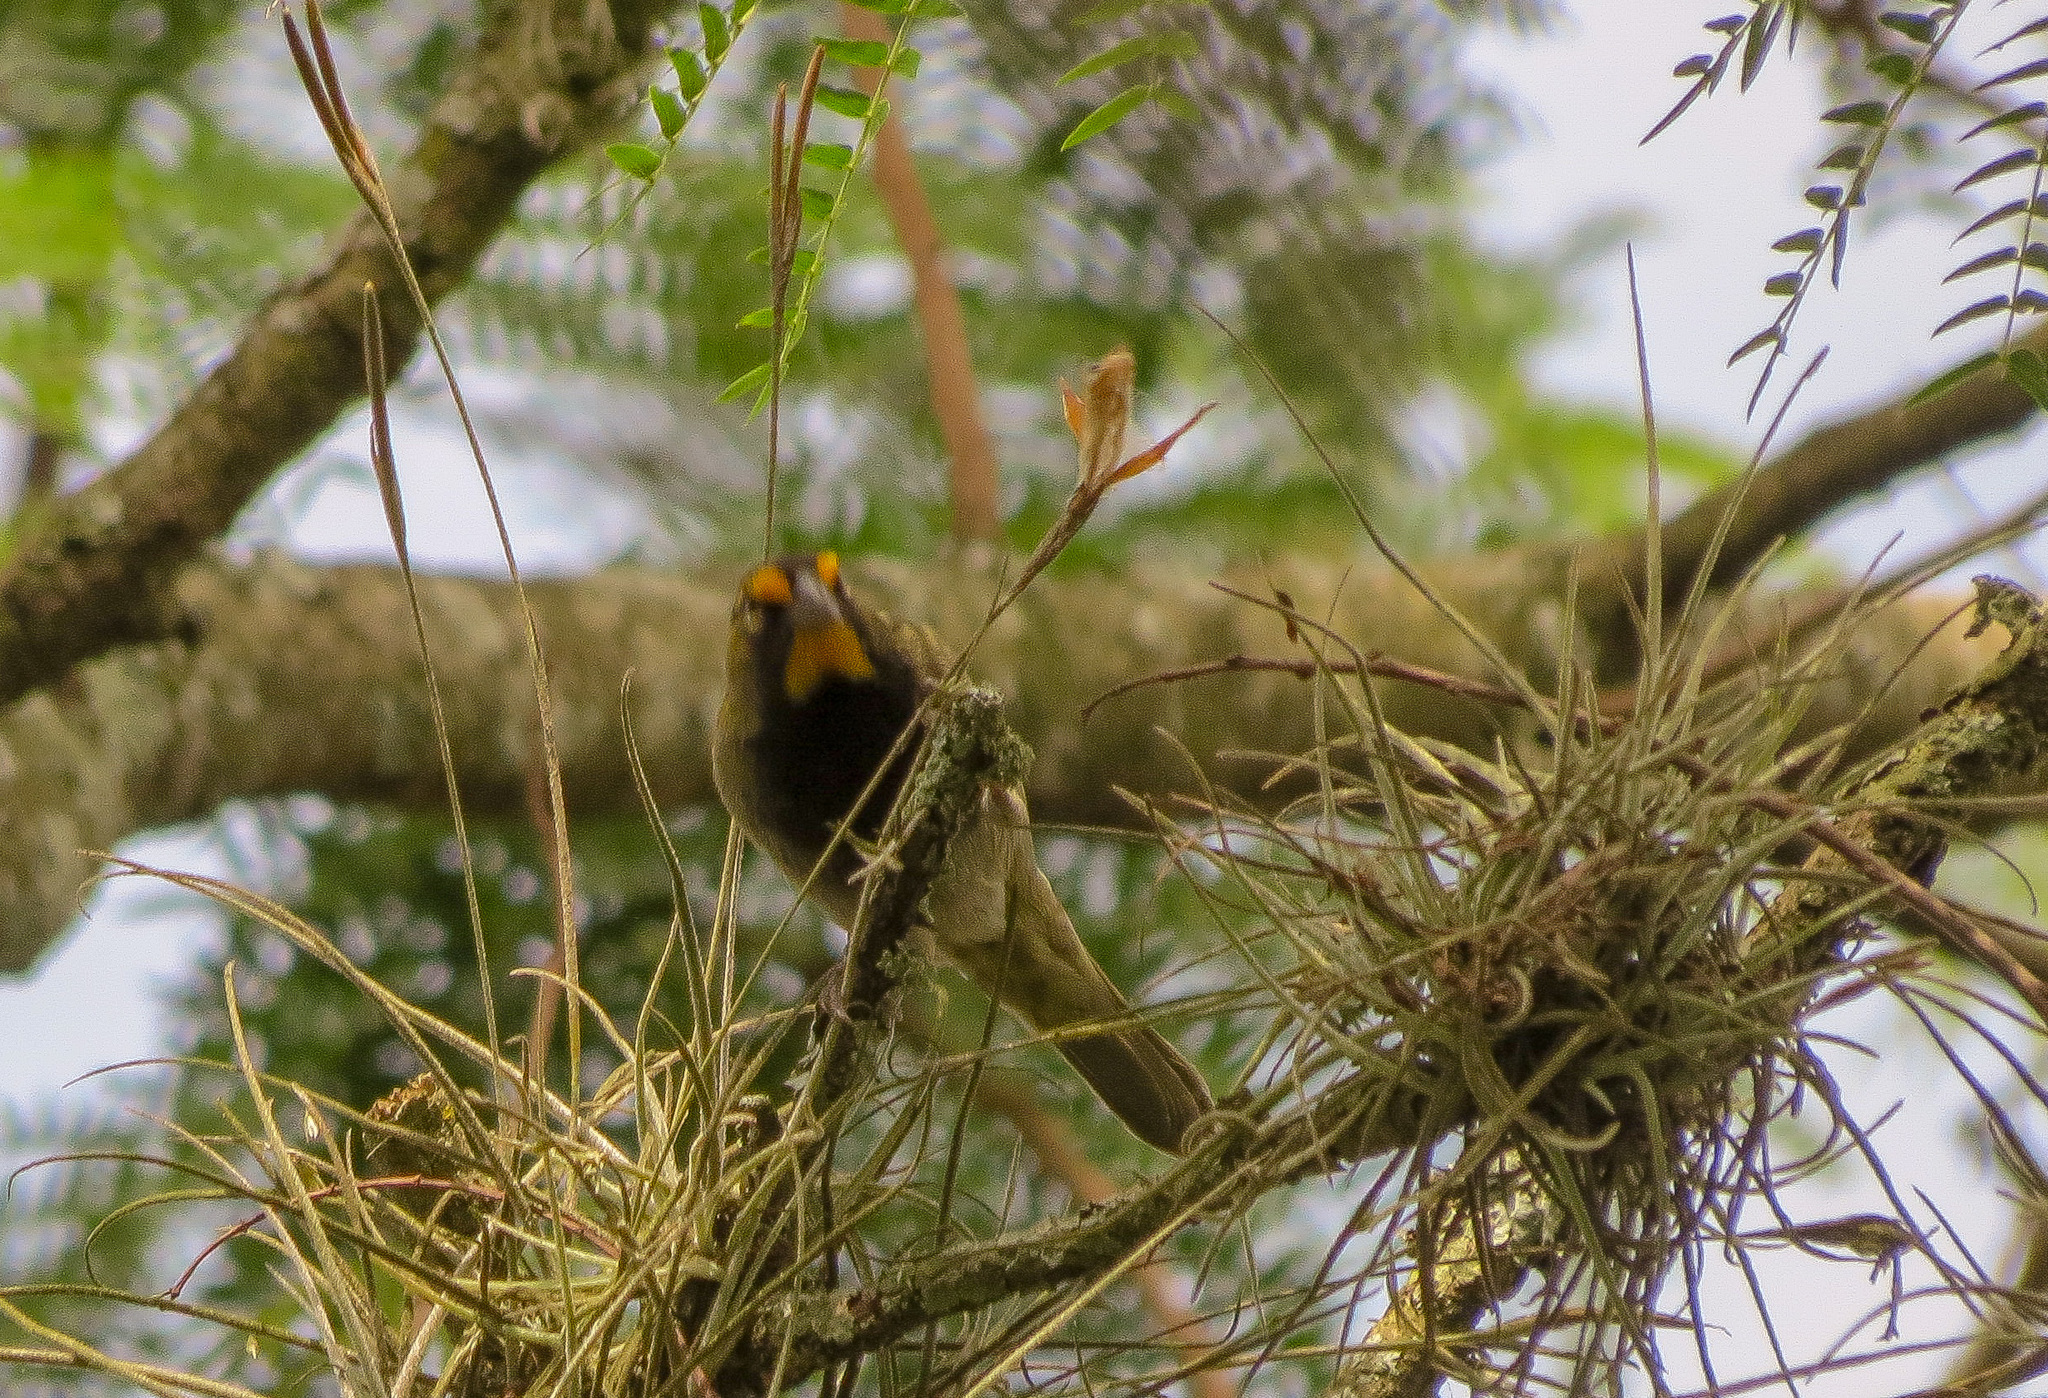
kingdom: Animalia
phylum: Chordata
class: Aves
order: Passeriformes
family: Thraupidae
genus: Tiaris
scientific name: Tiaris olivaceus
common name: Yellow-faced grassquit
